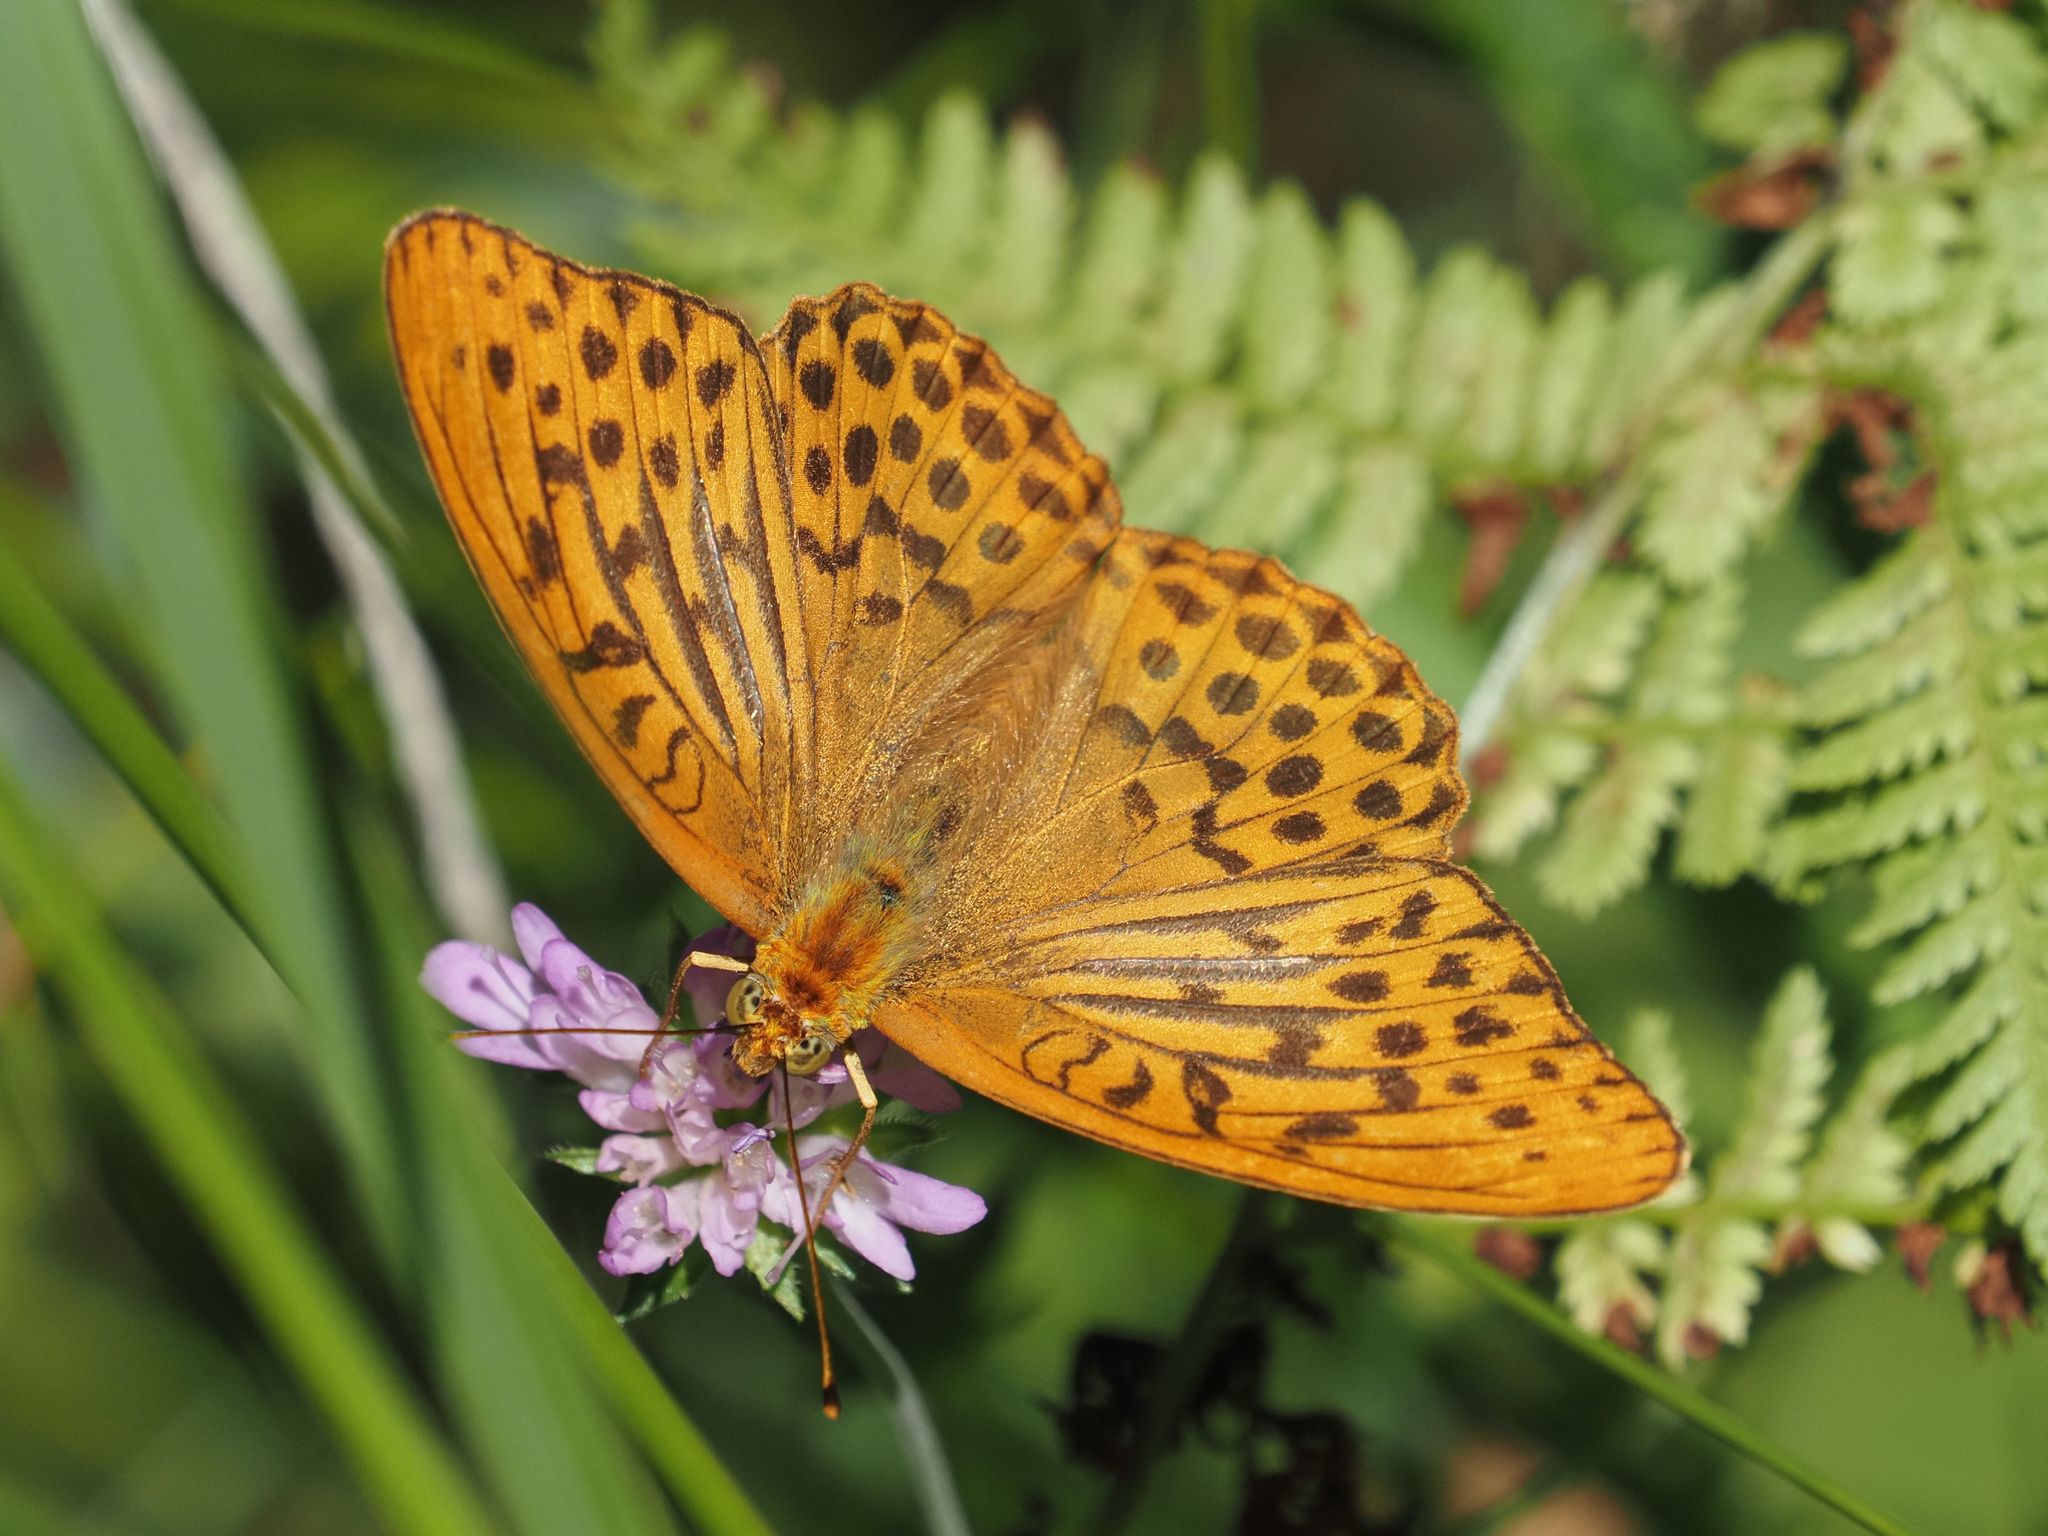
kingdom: Animalia
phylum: Arthropoda
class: Insecta
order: Lepidoptera
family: Nymphalidae
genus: Argynnis
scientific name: Argynnis paphia
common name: Silver-washed fritillary
